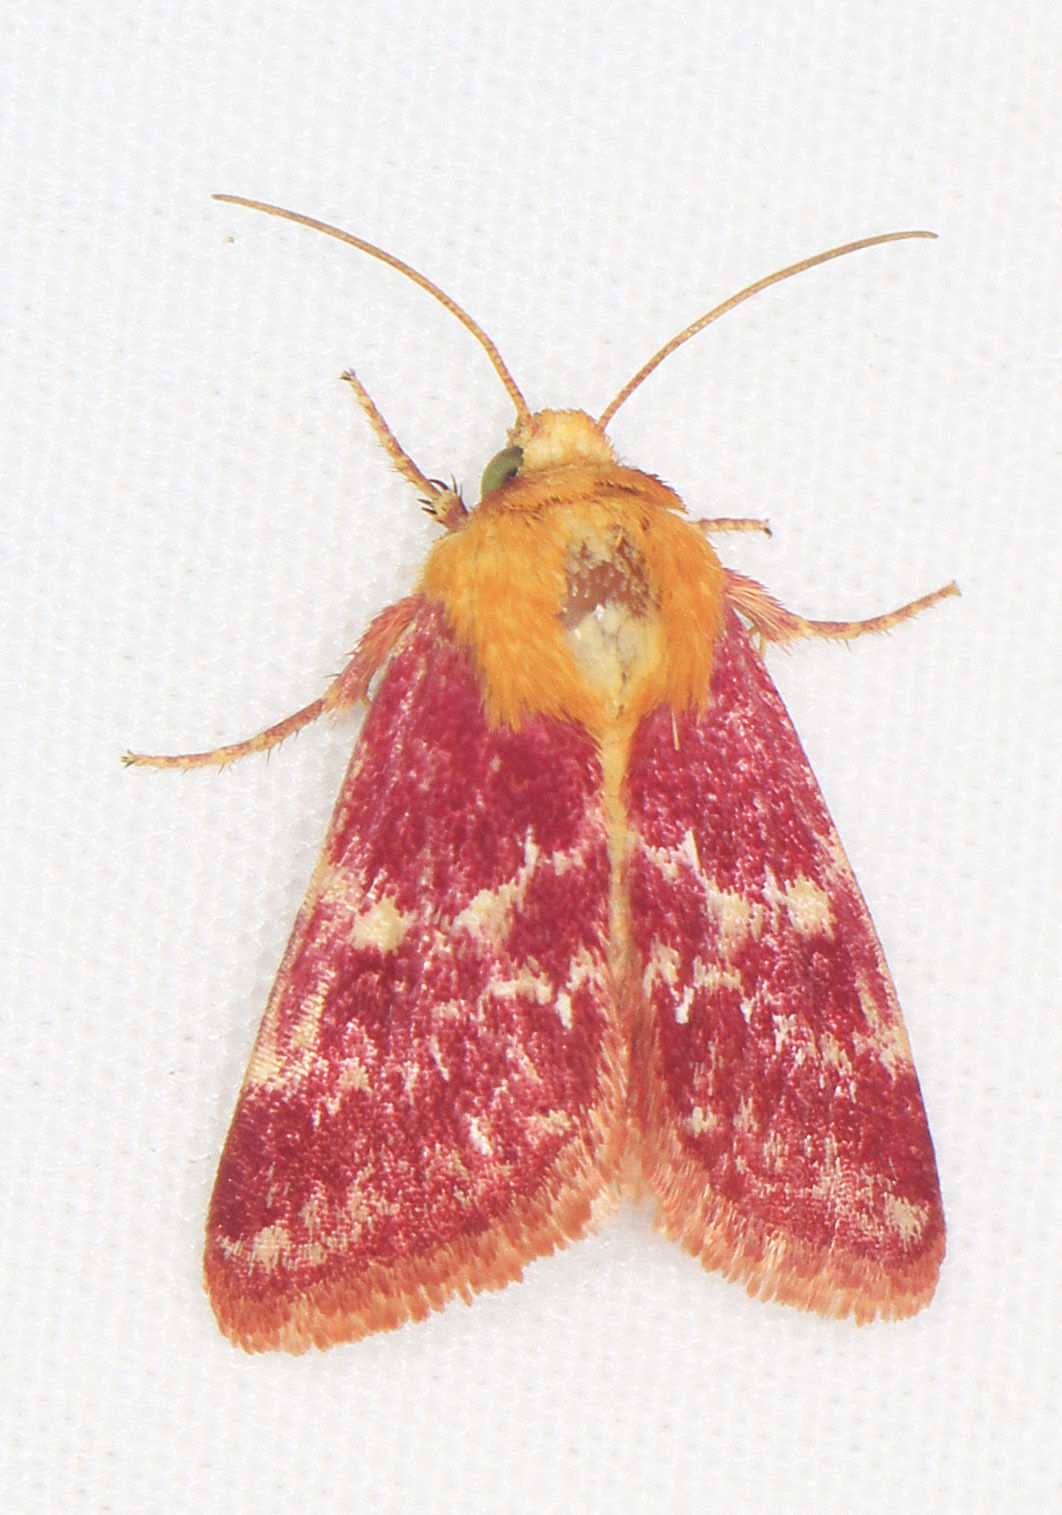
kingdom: Animalia
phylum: Arthropoda
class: Insecta
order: Lepidoptera
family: Noctuidae
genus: Schinia
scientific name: Schinia volupia
